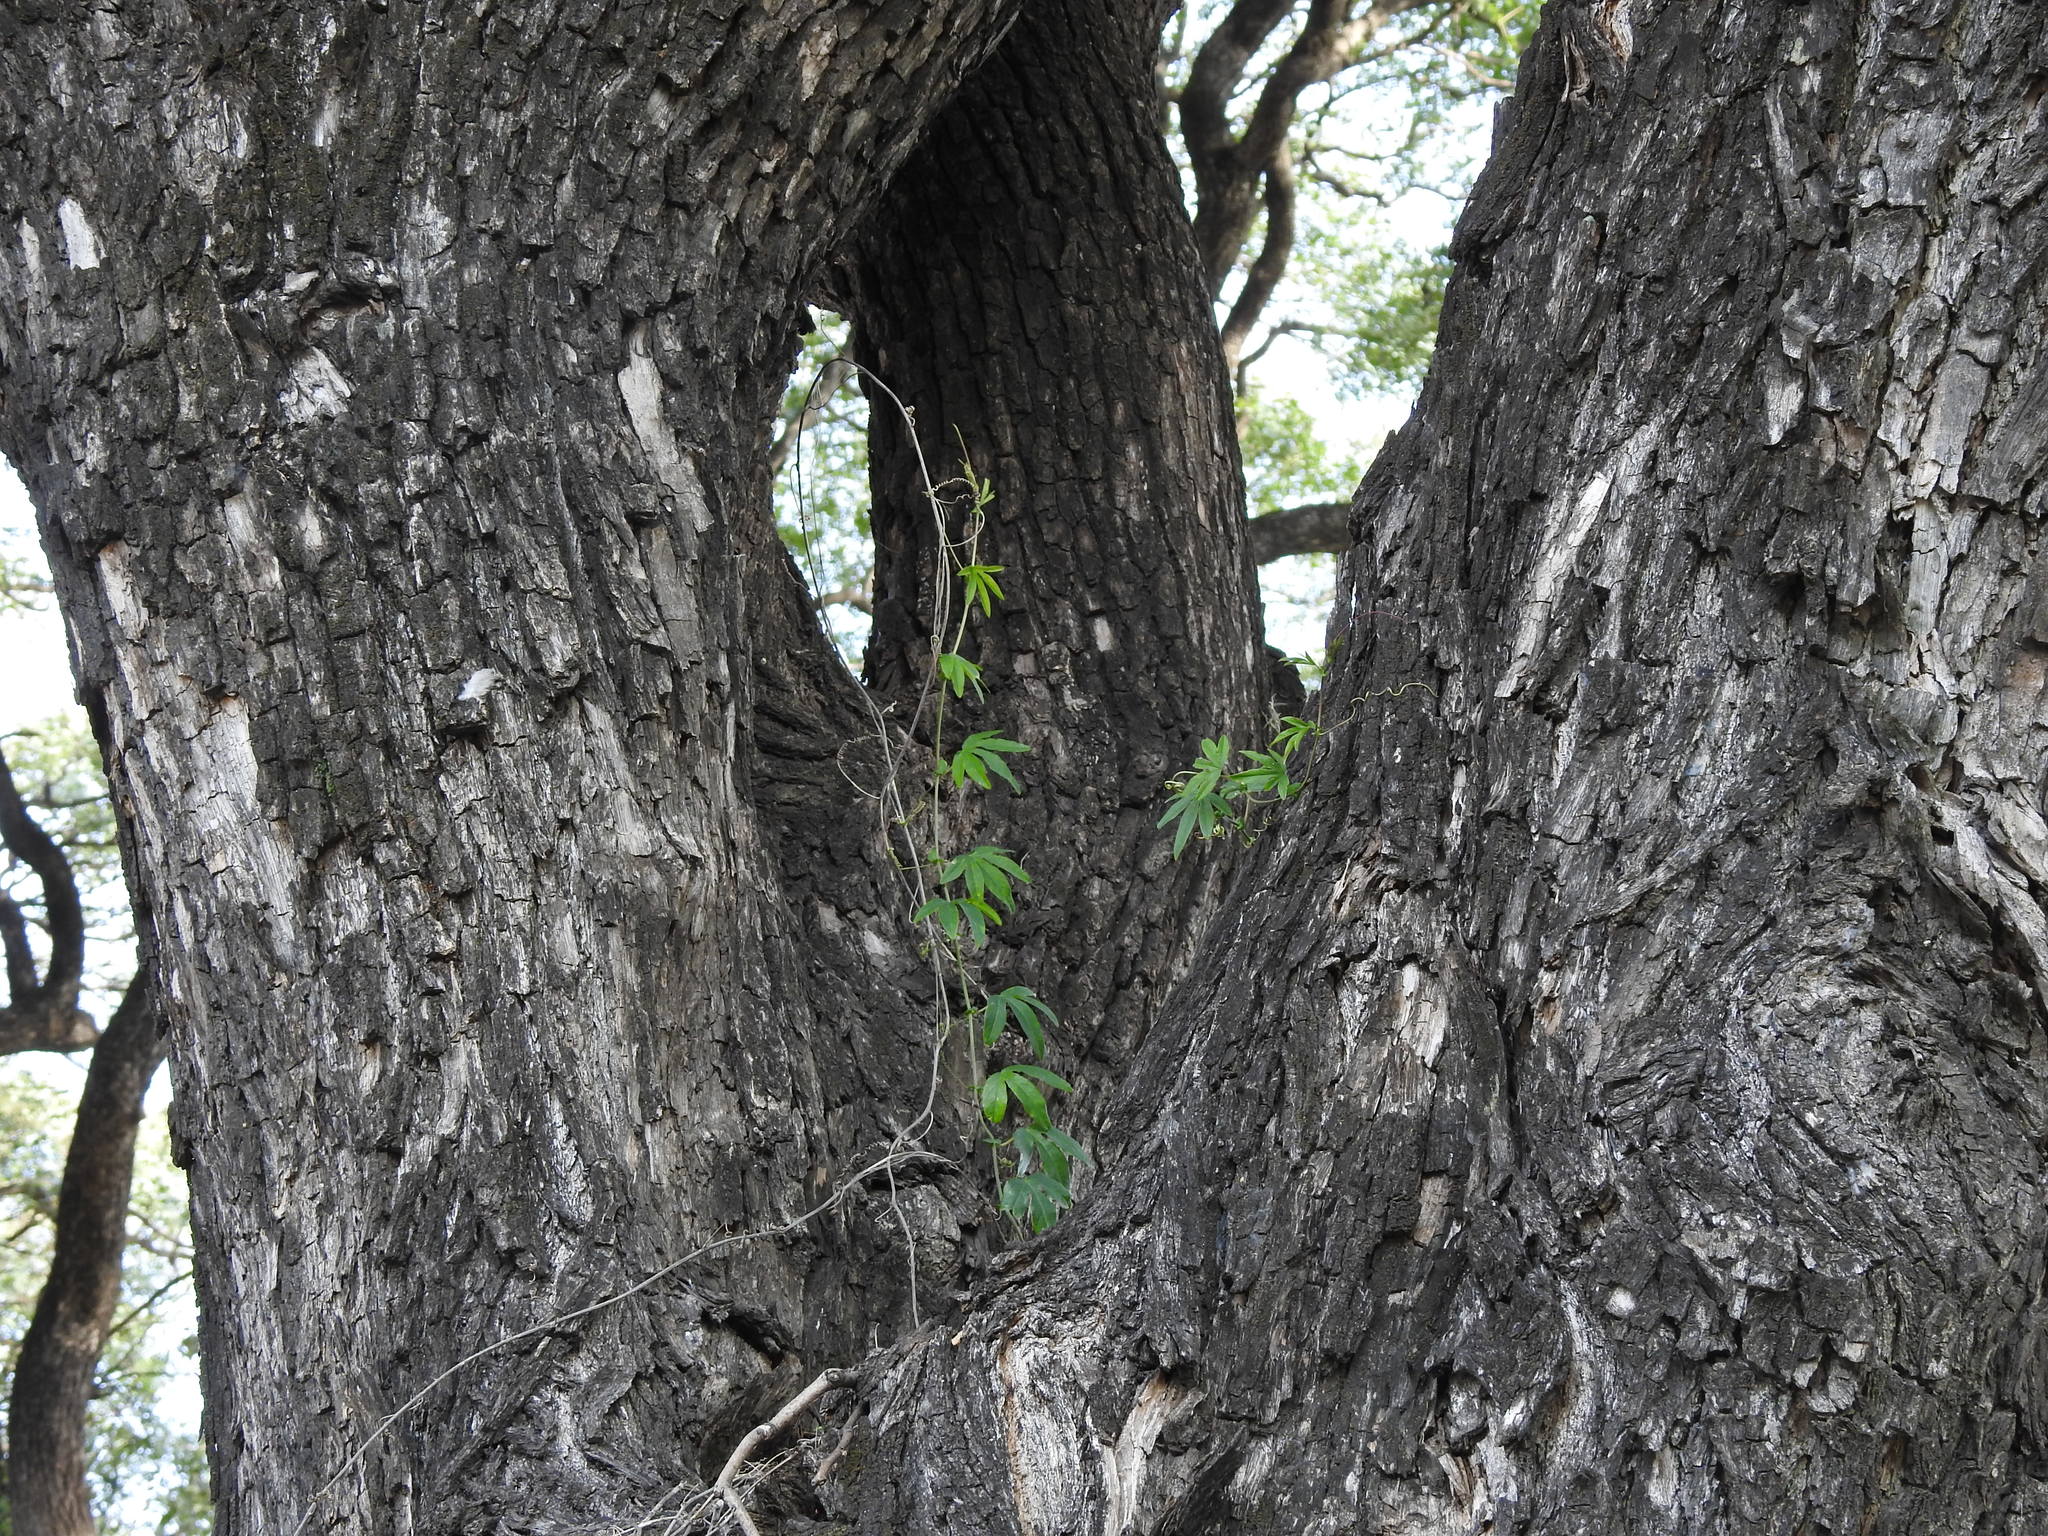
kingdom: Plantae
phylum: Tracheophyta
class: Magnoliopsida
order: Malpighiales
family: Passifloraceae
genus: Passiflora
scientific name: Passiflora caerulea
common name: Blue passionflower
